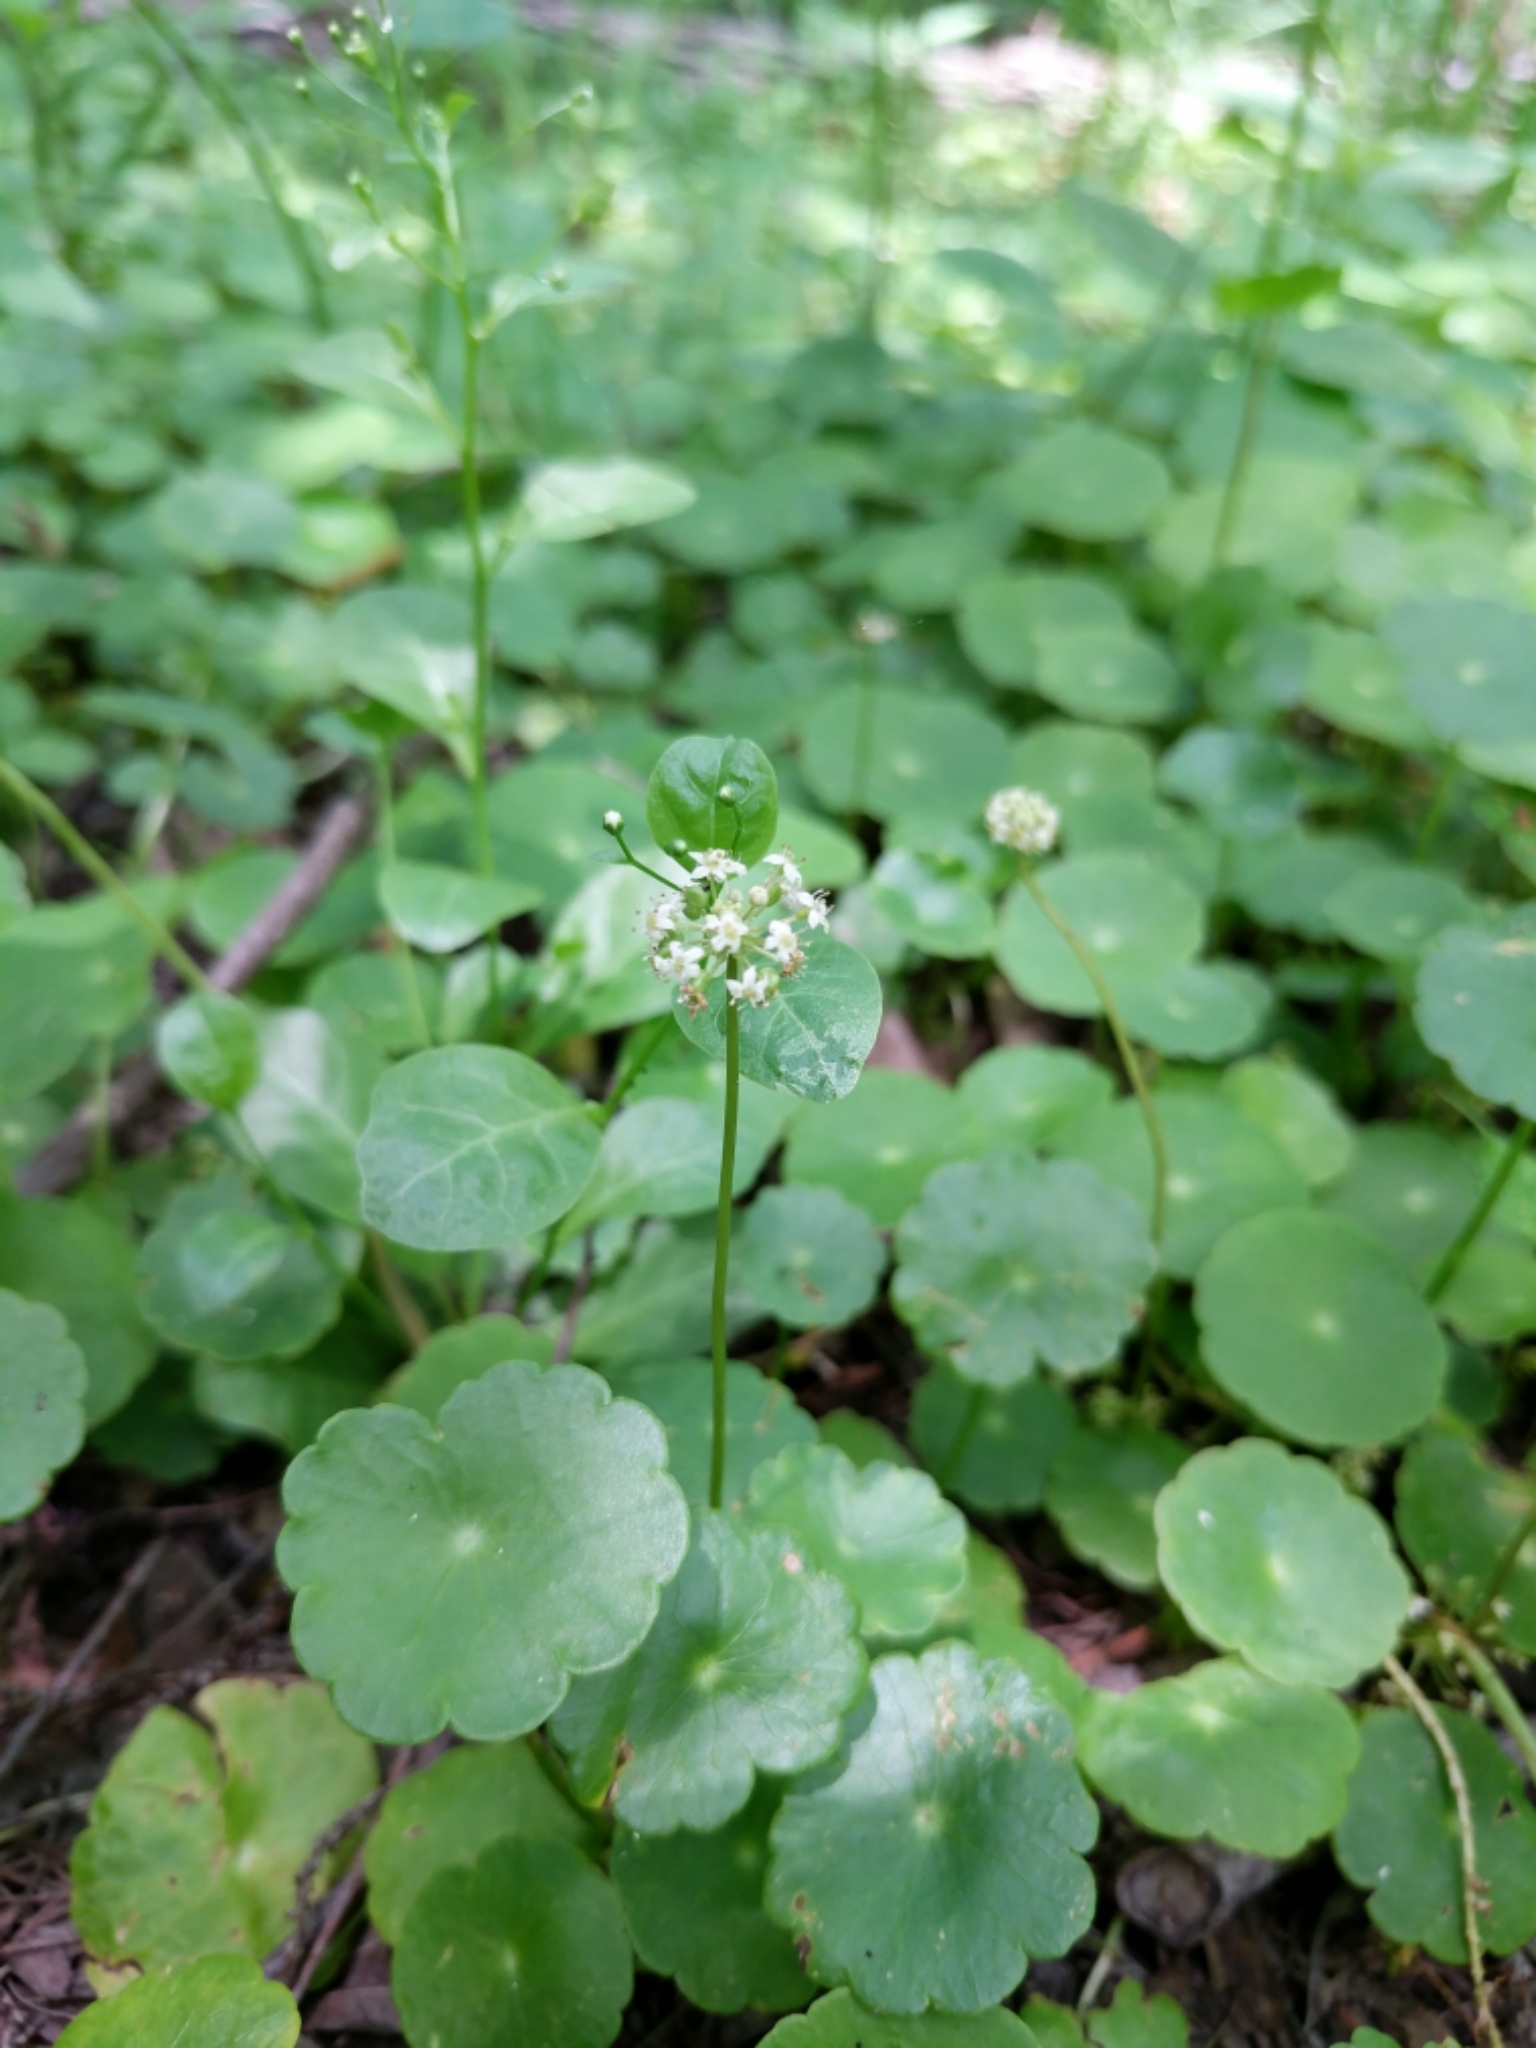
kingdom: Plantae
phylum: Tracheophyta
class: Magnoliopsida
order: Apiales
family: Araliaceae
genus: Hydrocotyle
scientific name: Hydrocotyle umbellata
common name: Water pennywort
